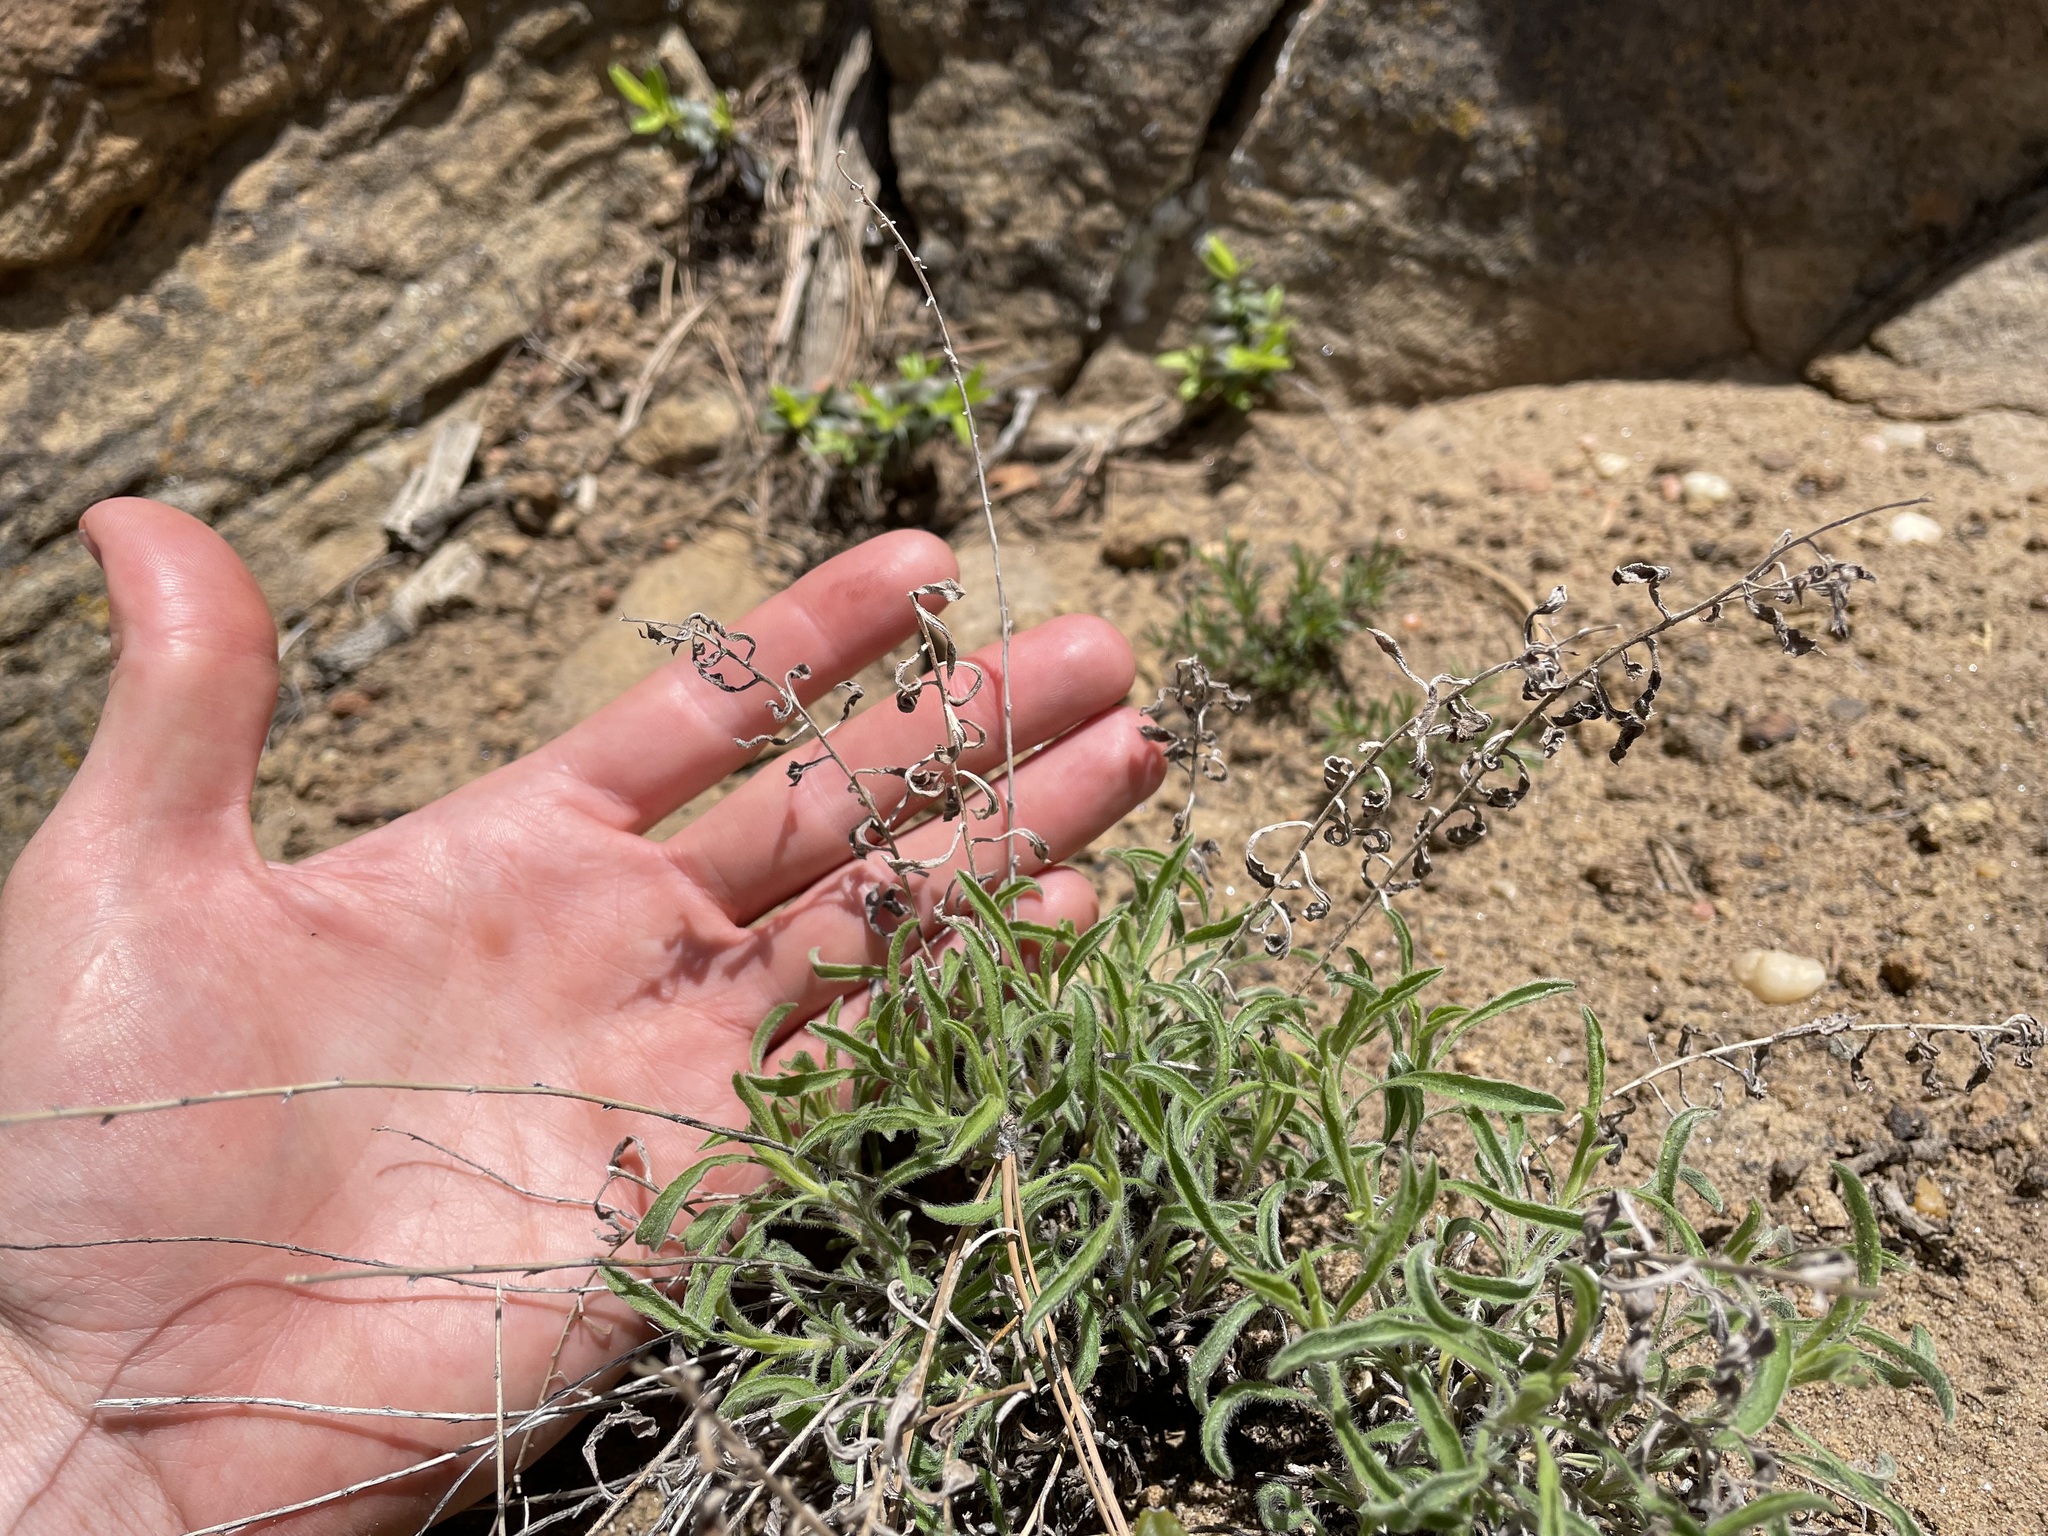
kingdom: Plantae
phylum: Tracheophyta
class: Magnoliopsida
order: Asterales
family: Asteraceae
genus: Heterotheca
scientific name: Heterotheca hirsutissima
